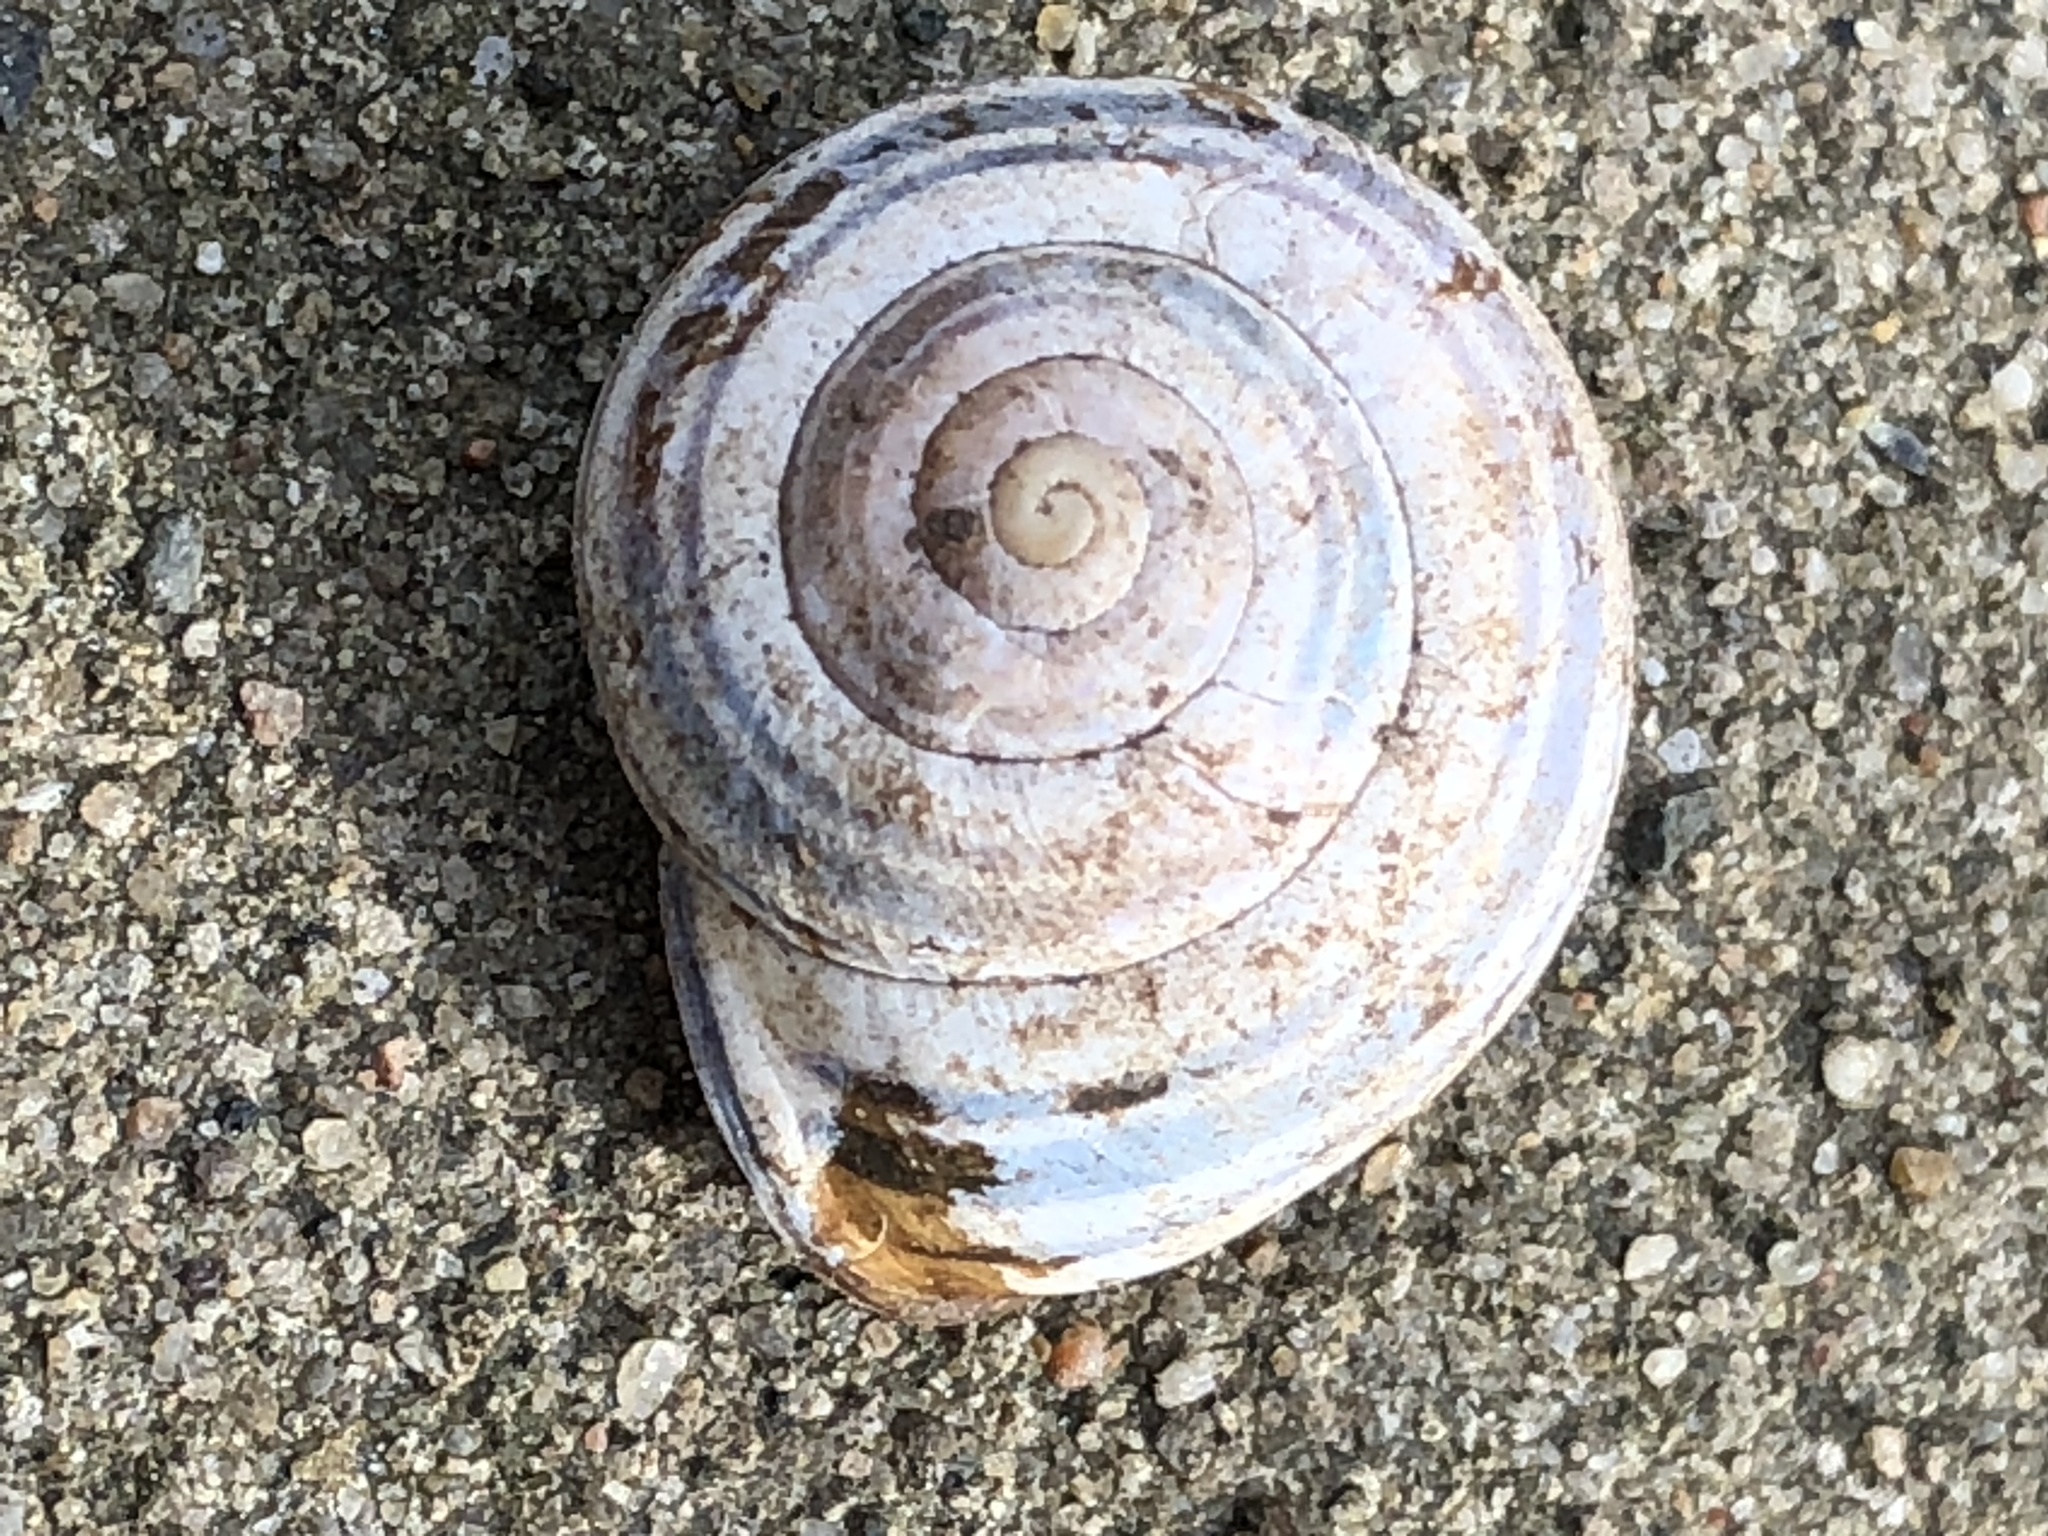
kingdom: Animalia
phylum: Mollusca
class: Gastropoda
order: Stylommatophora
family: Helicidae
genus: Cepaea
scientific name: Cepaea nemoralis
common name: Grovesnail
